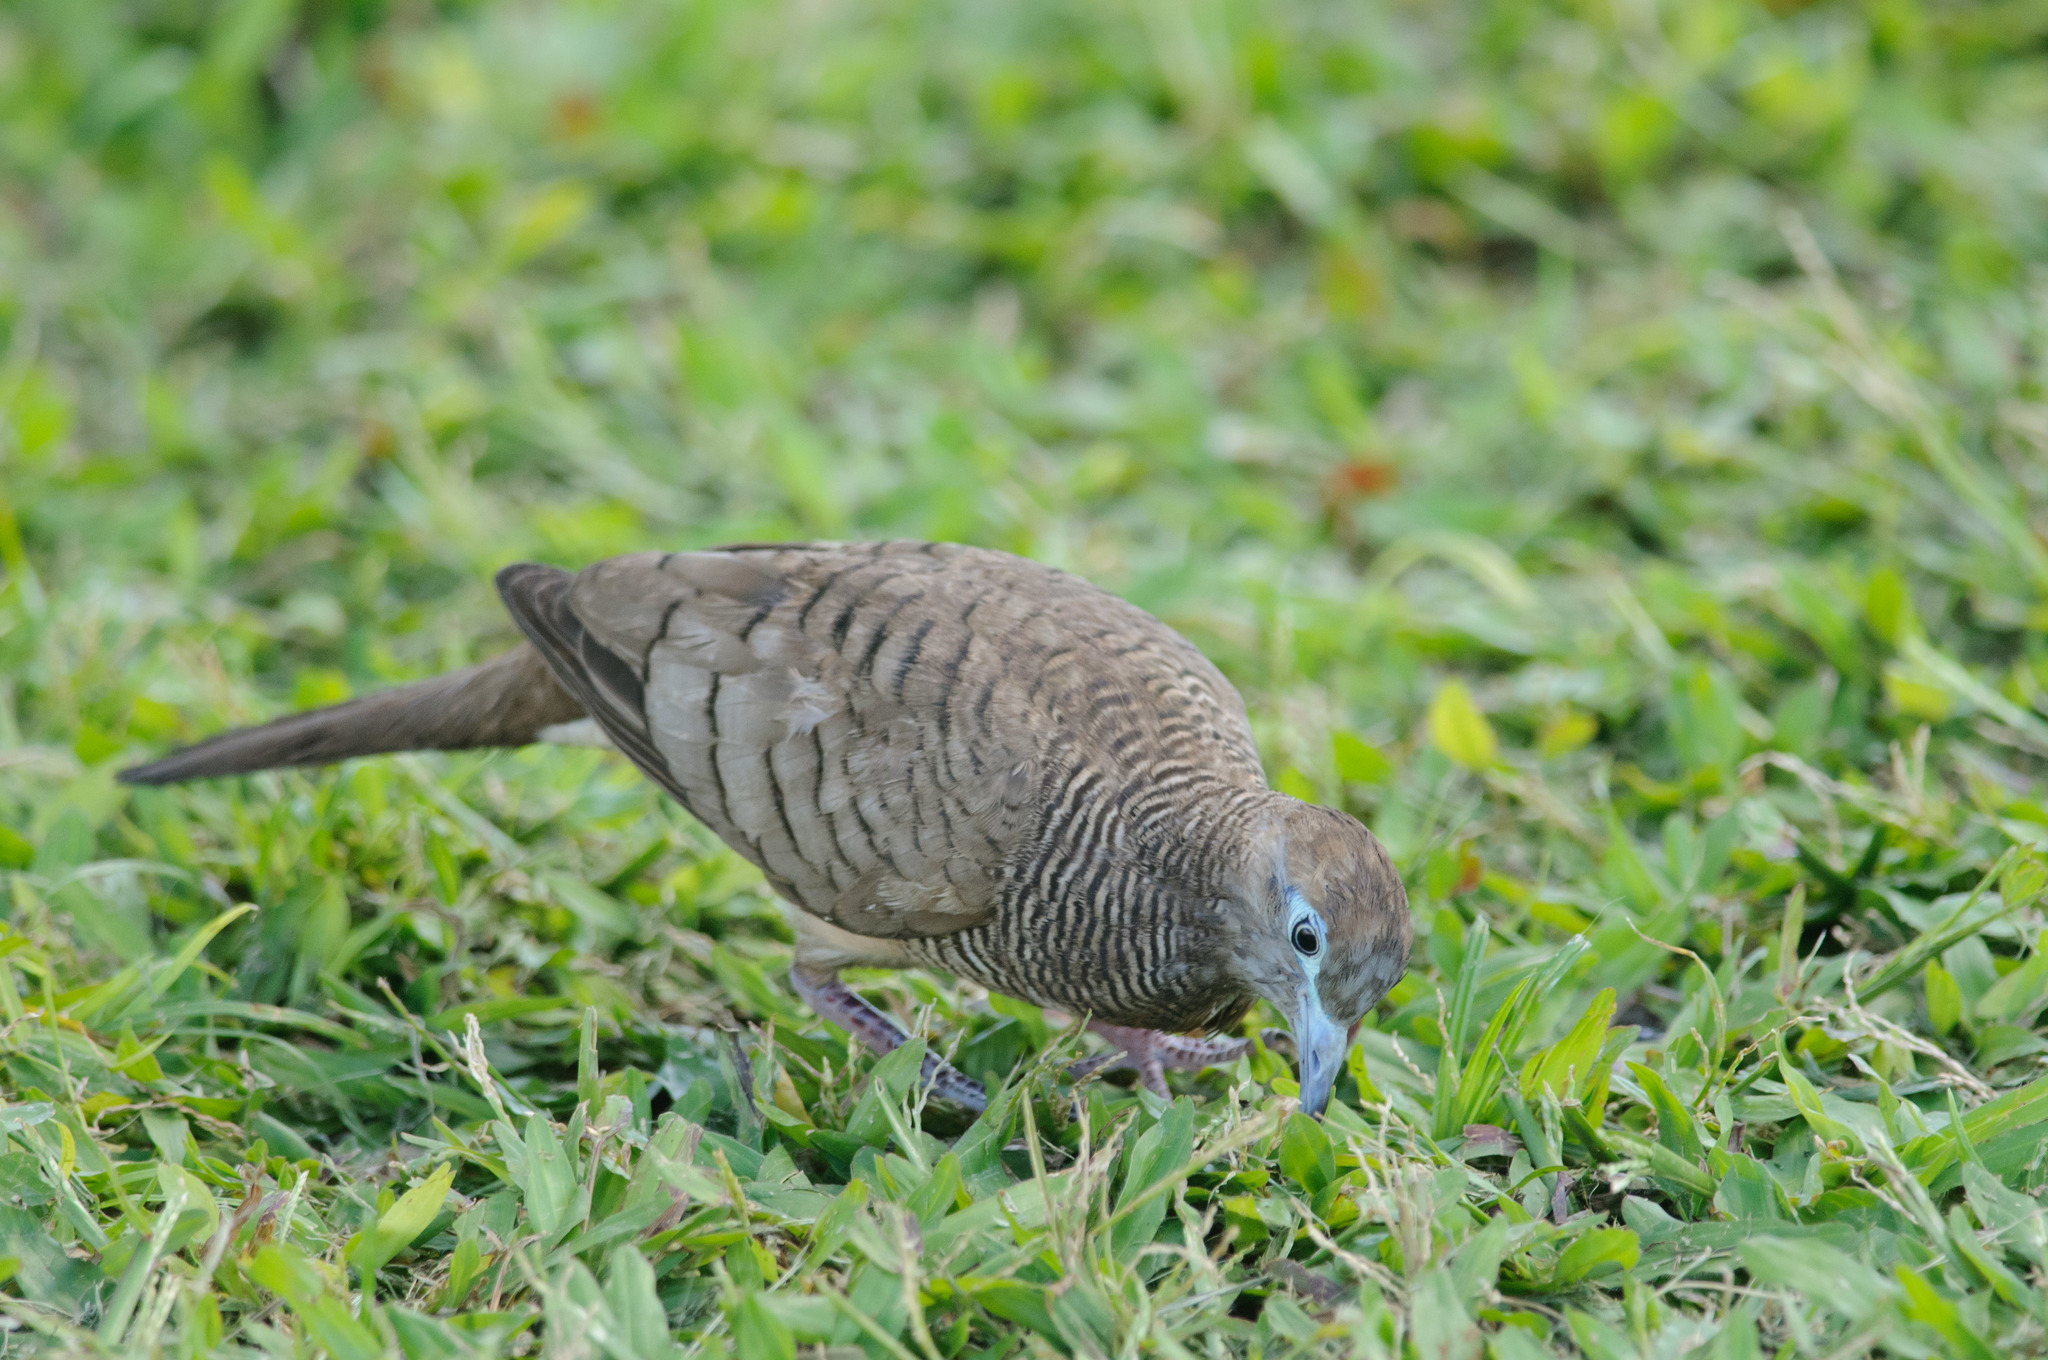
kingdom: Animalia
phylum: Chordata
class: Aves
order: Columbiformes
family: Columbidae
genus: Geopelia
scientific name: Geopelia striata
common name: Zebra dove
